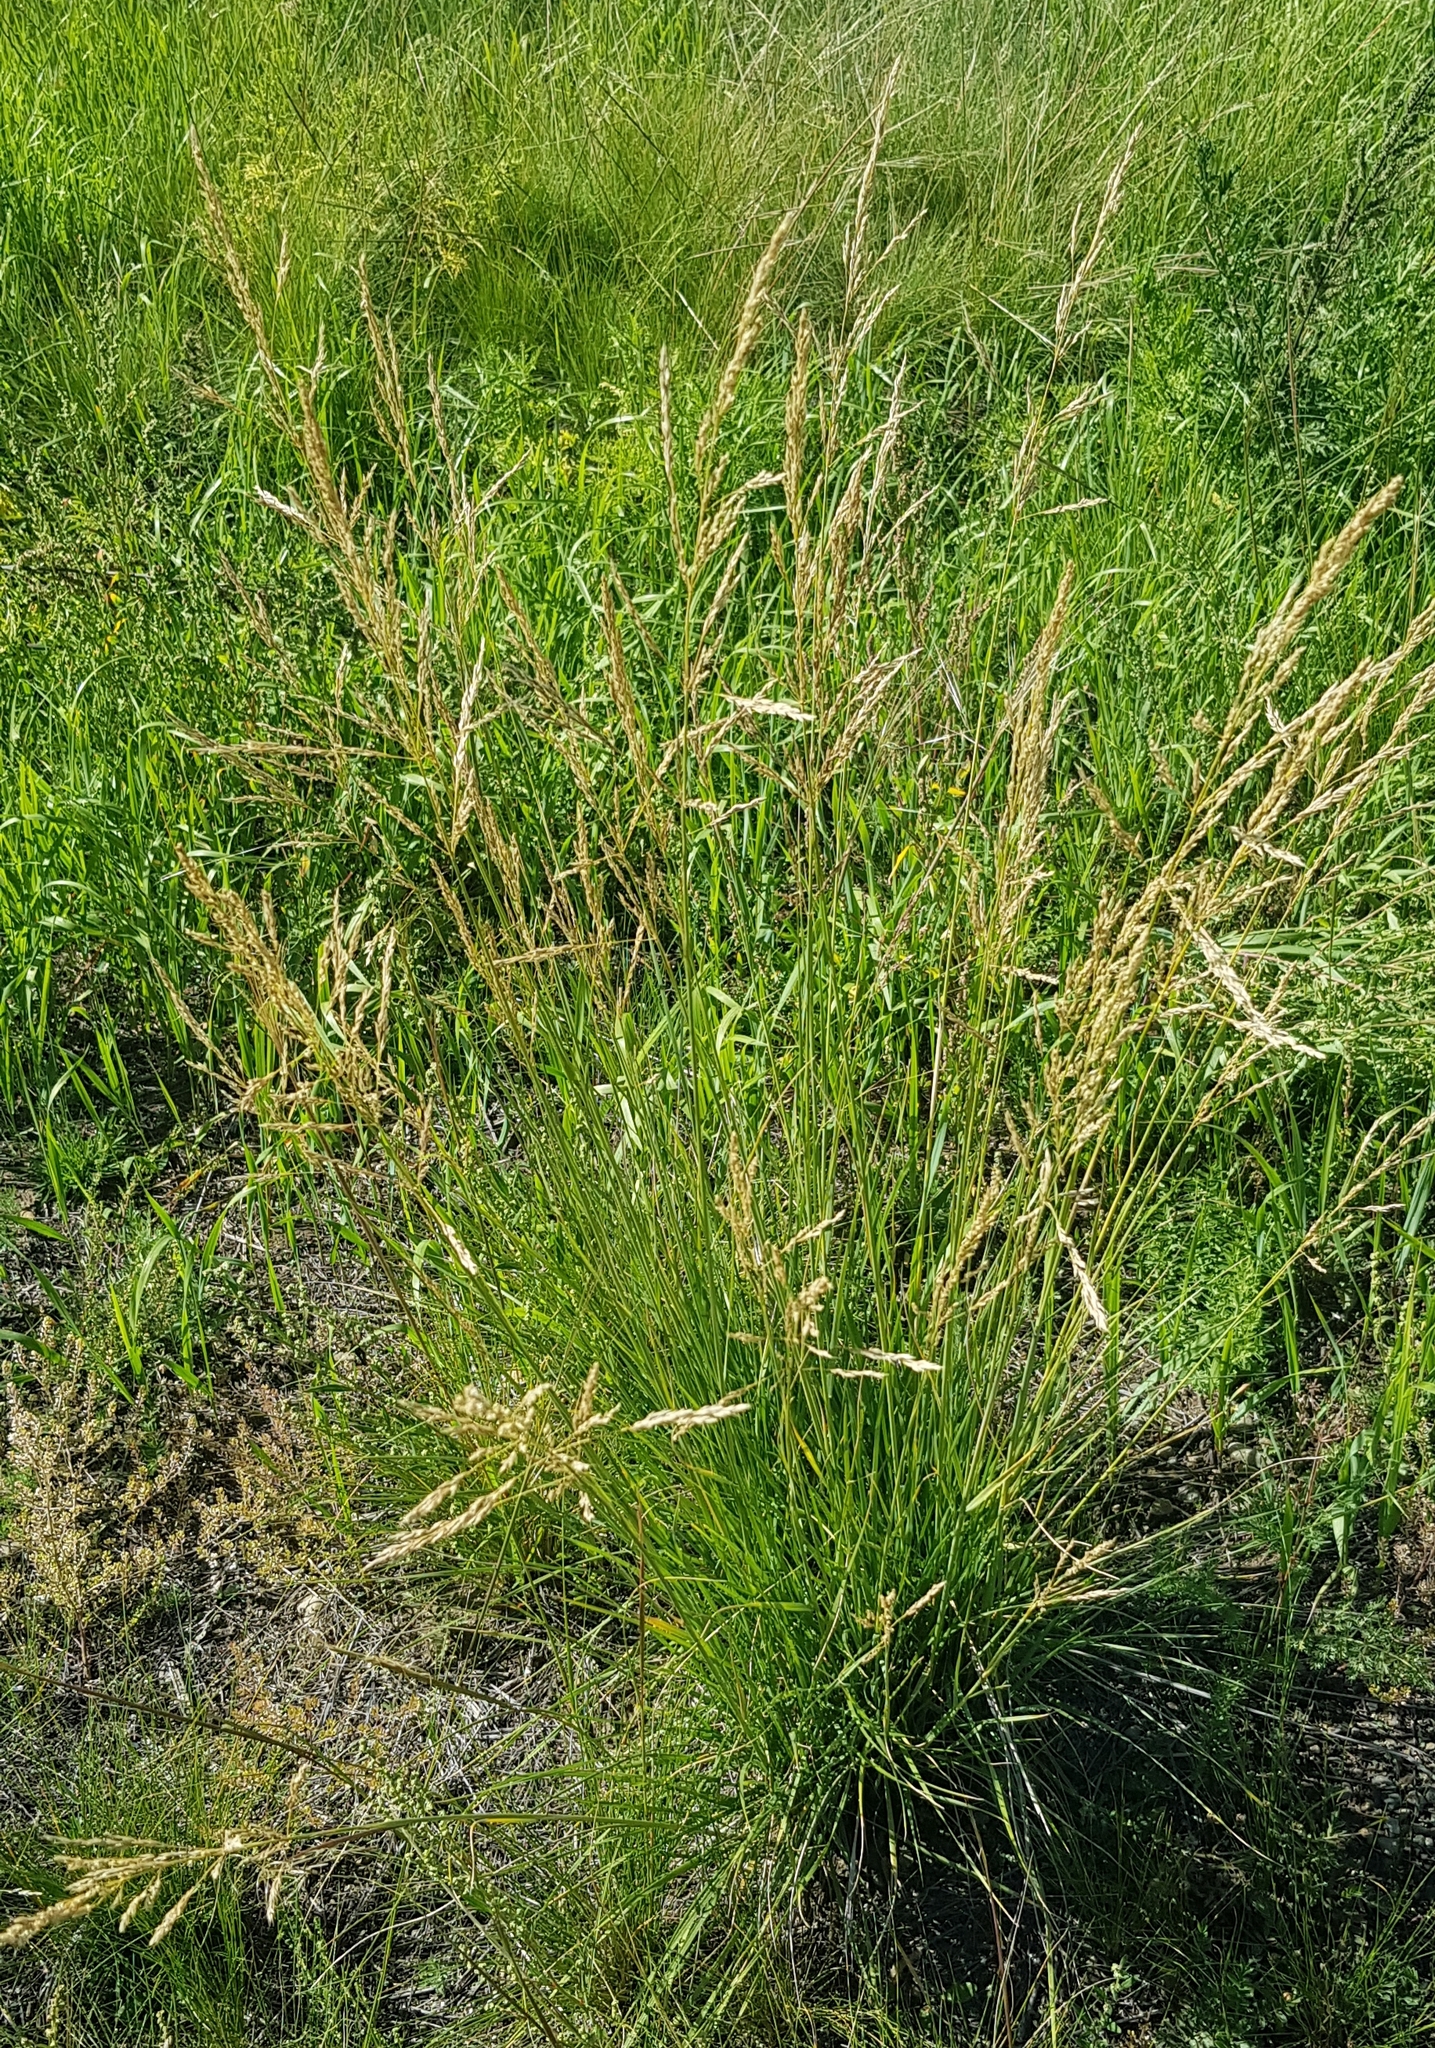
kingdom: Plantae
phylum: Tracheophyta
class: Liliopsida
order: Poales
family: Poaceae
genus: Deschampsia
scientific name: Deschampsia cespitosa
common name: Tufted hair-grass
